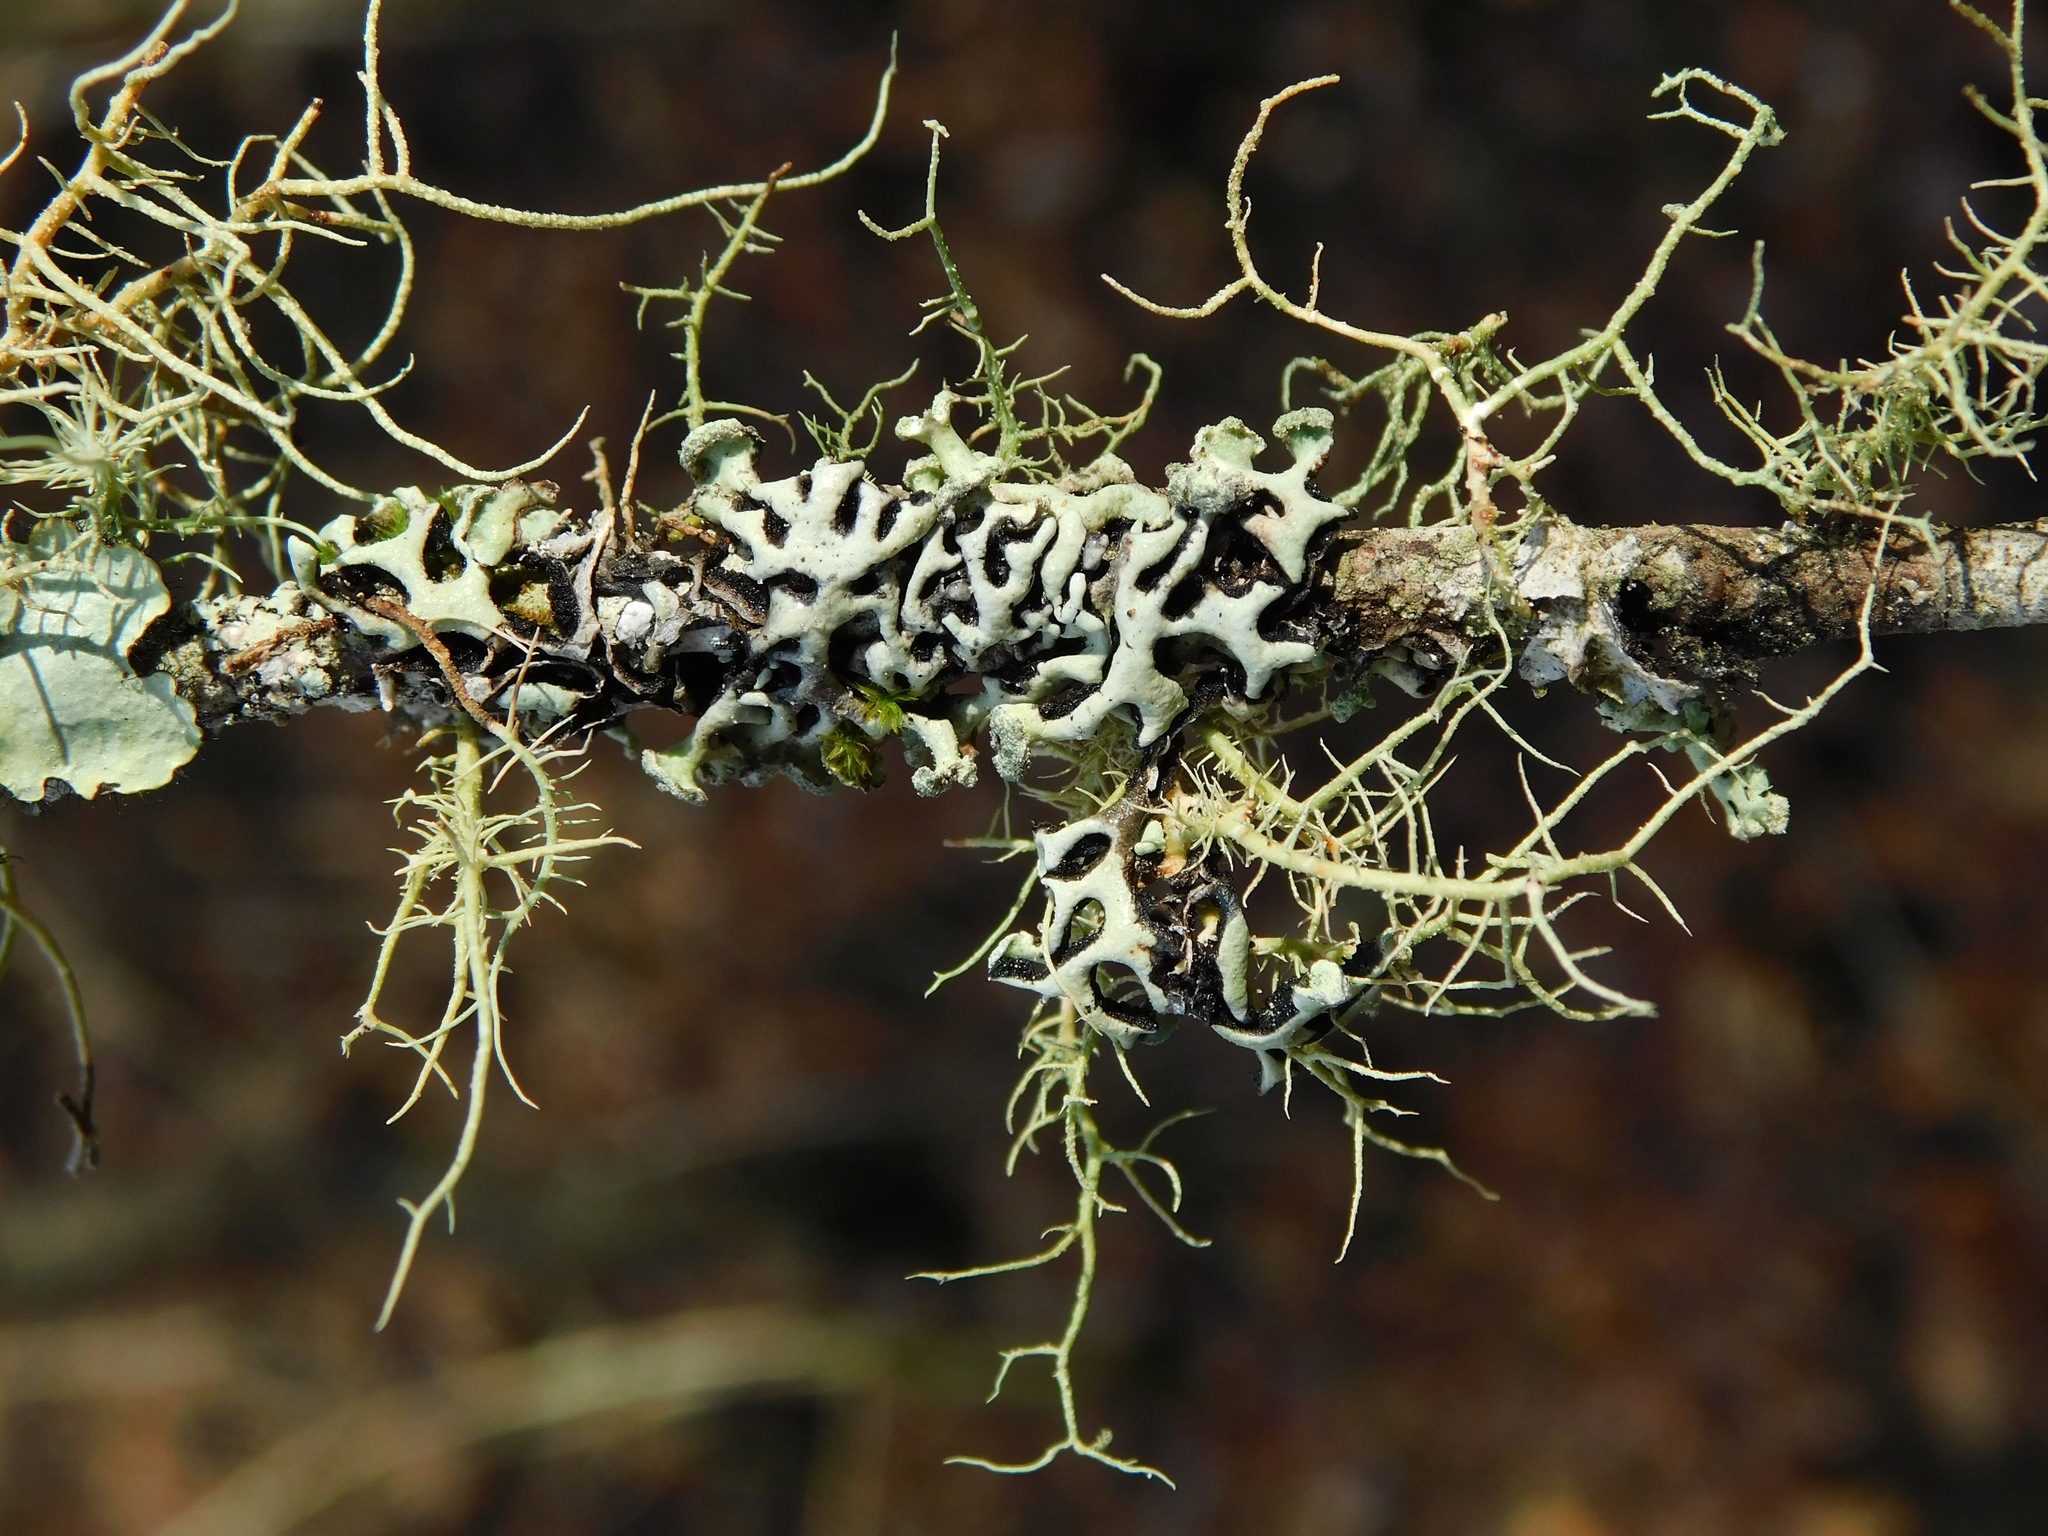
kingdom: Fungi
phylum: Ascomycota
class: Lecanoromycetes
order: Lecanorales
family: Parmeliaceae
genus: Hypogymnia
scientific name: Hypogymnia tubulosa
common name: Powder-headed tube lichen
